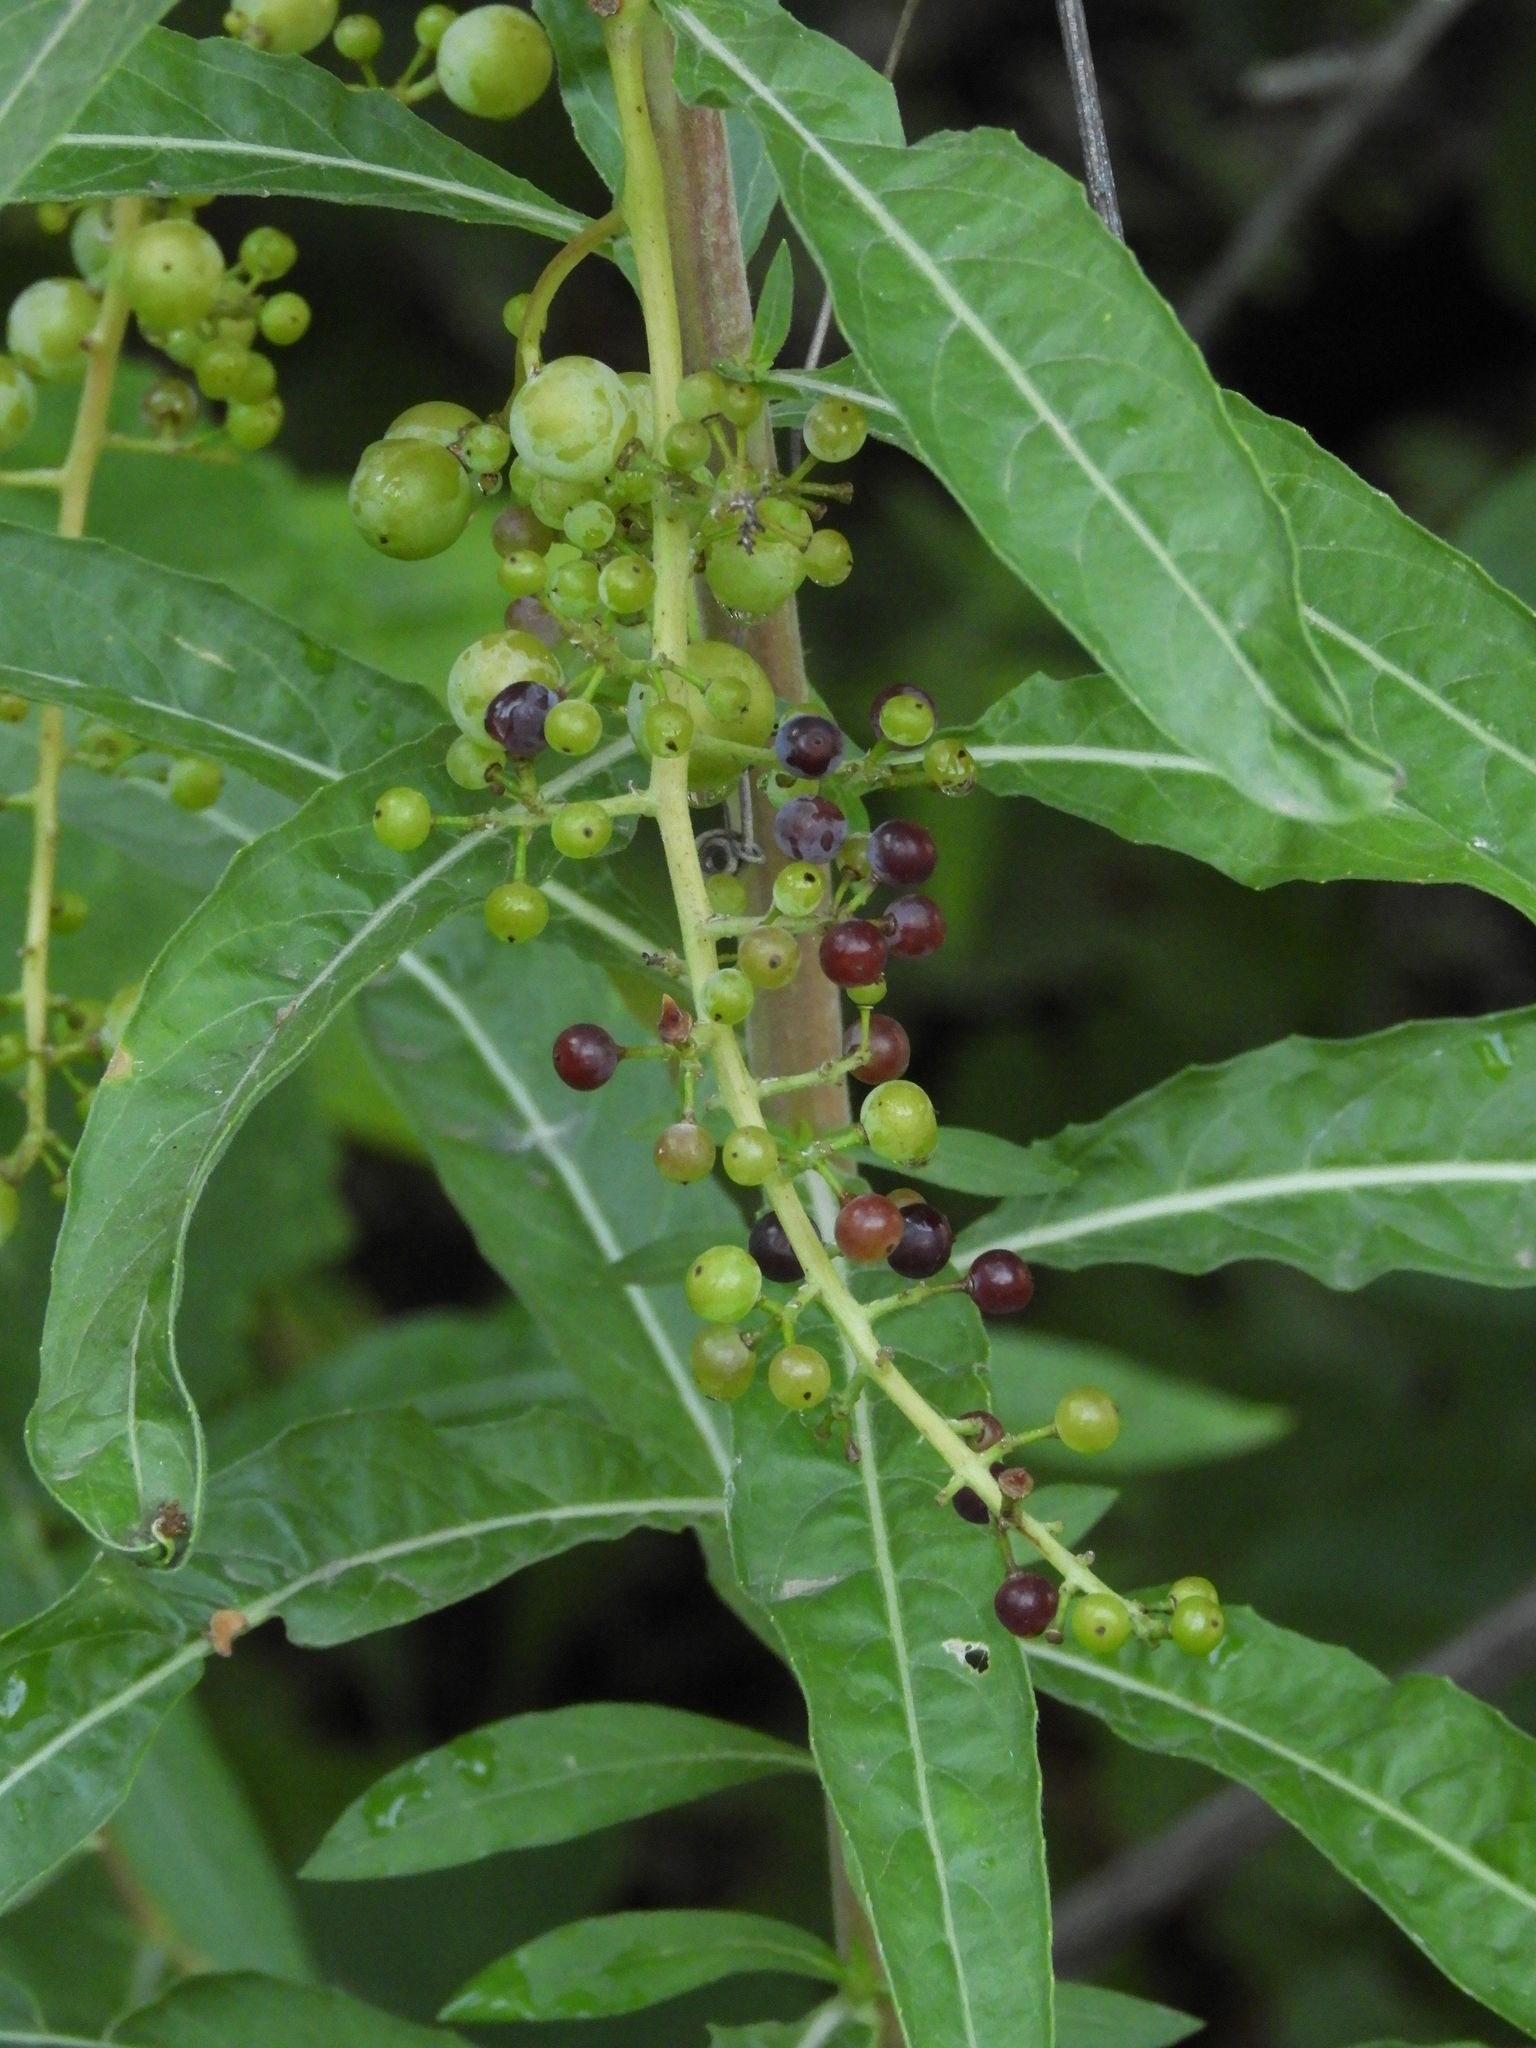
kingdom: Plantae
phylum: Tracheophyta
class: Magnoliopsida
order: Vitales
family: Vitaceae
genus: Vitis
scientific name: Vitis californica
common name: California wild grape
